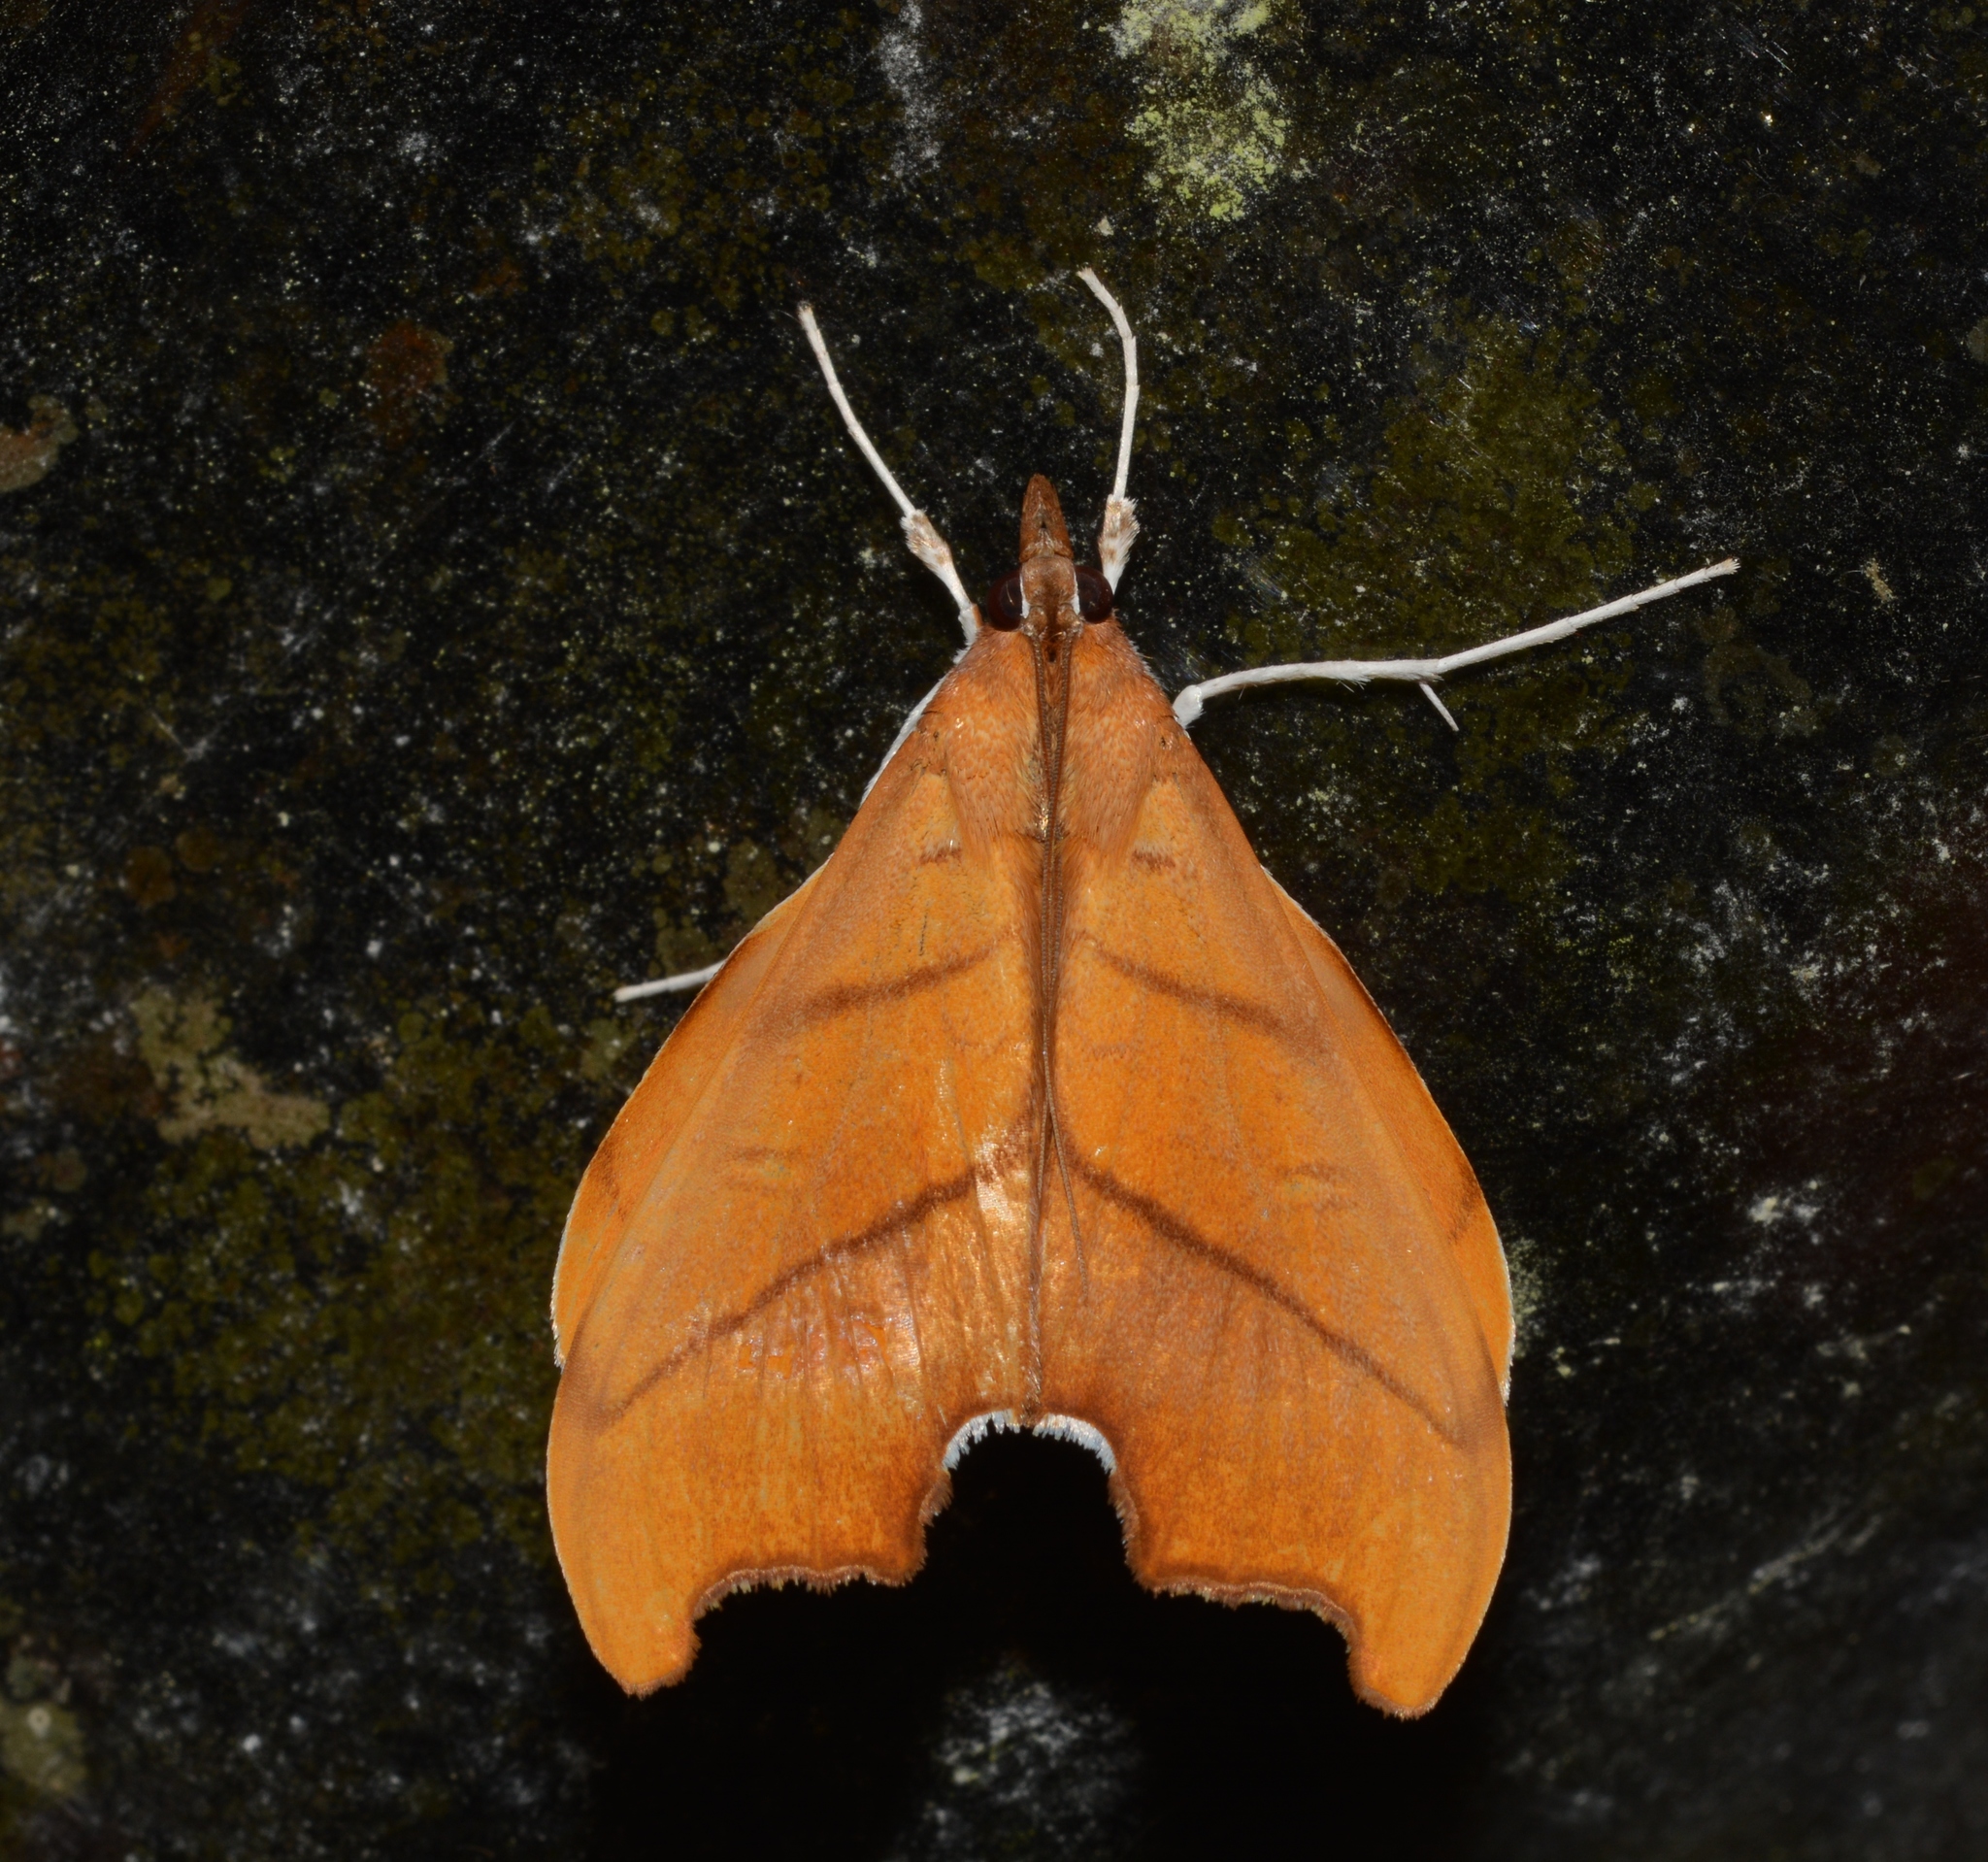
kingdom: Animalia
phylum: Arthropoda
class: Insecta
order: Lepidoptera
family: Crambidae
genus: Sparagmia
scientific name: Sparagmia gonoptera
